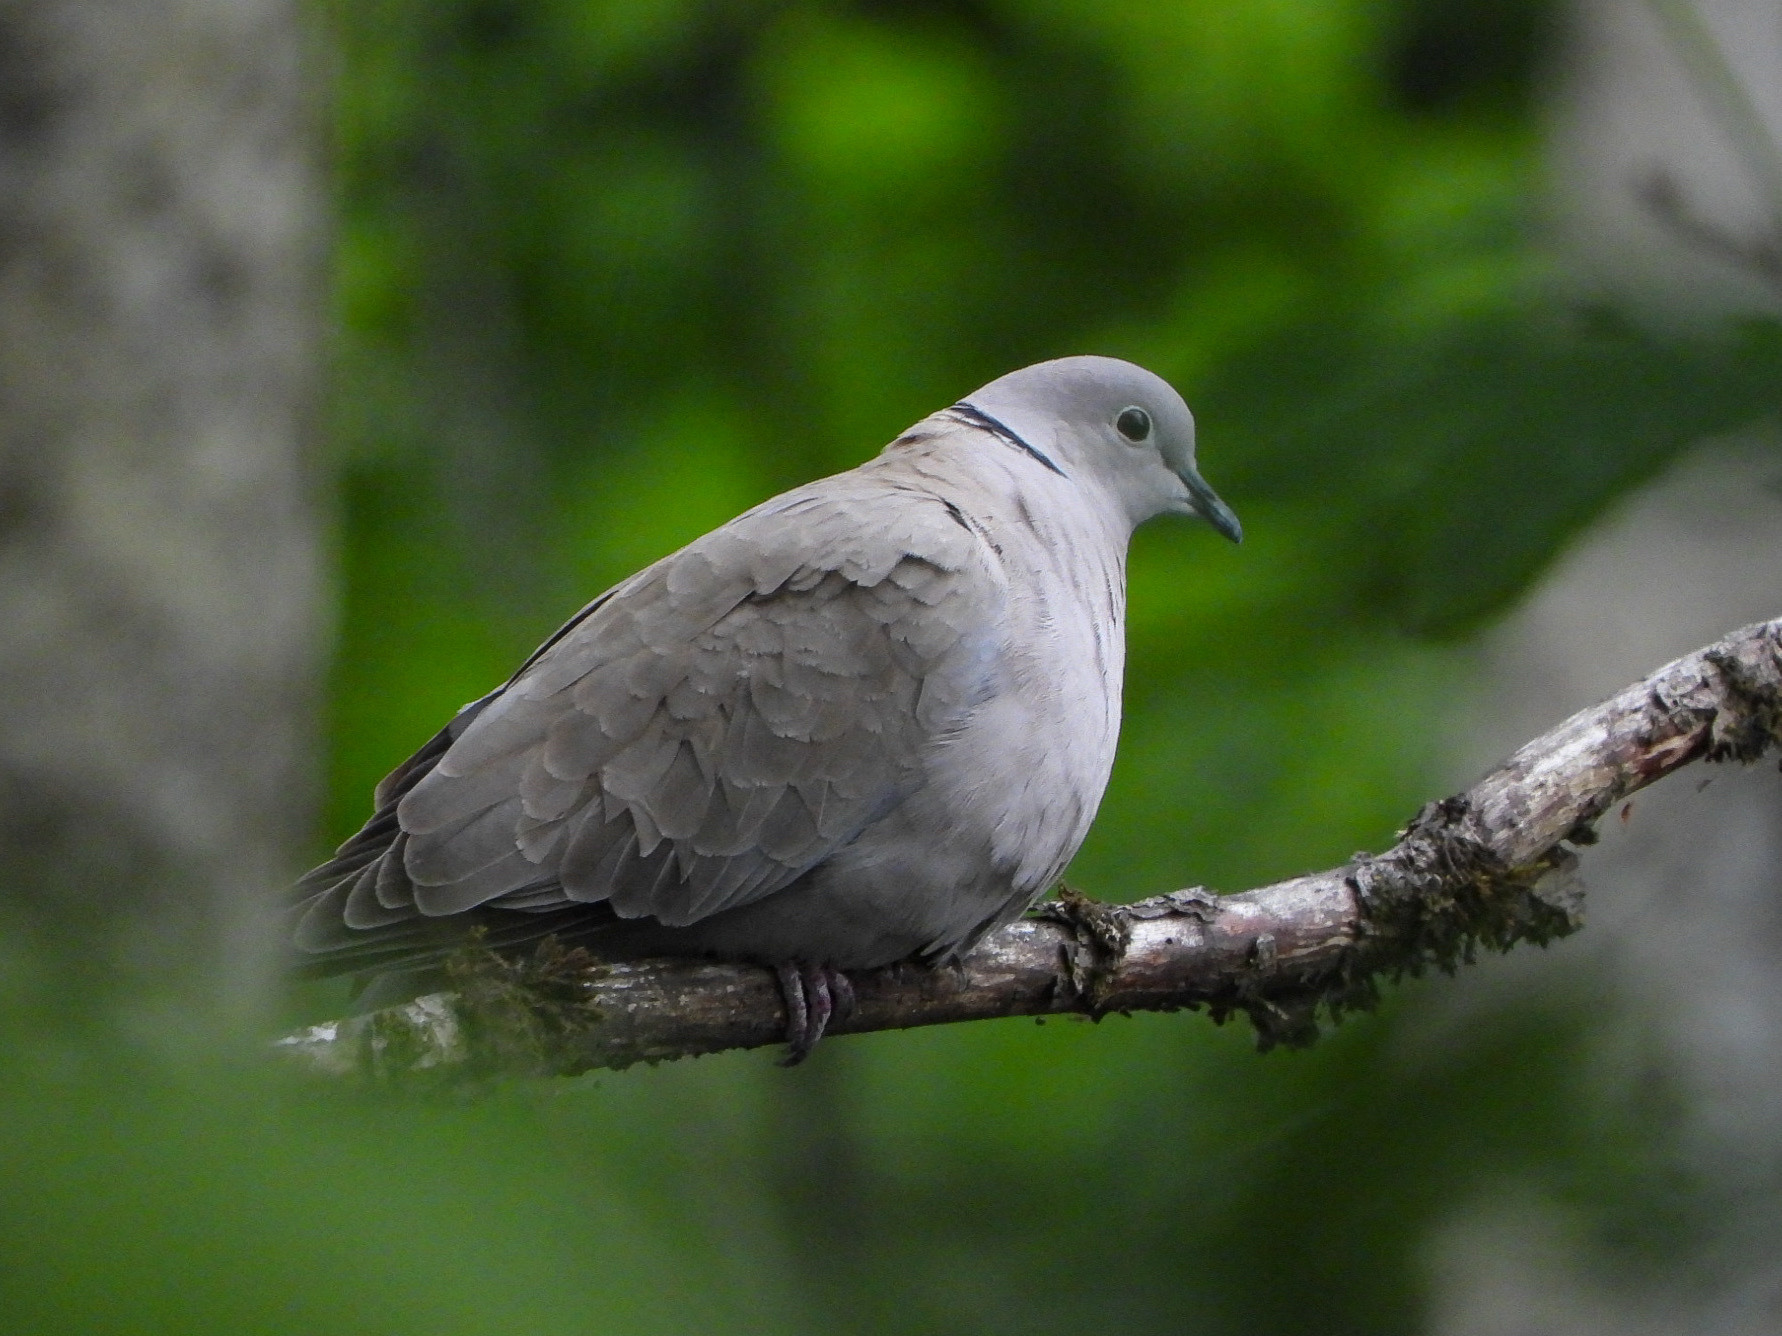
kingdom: Animalia
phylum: Chordata
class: Aves
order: Columbiformes
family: Columbidae
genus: Streptopelia
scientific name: Streptopelia decaocto
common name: Eurasian collared dove
